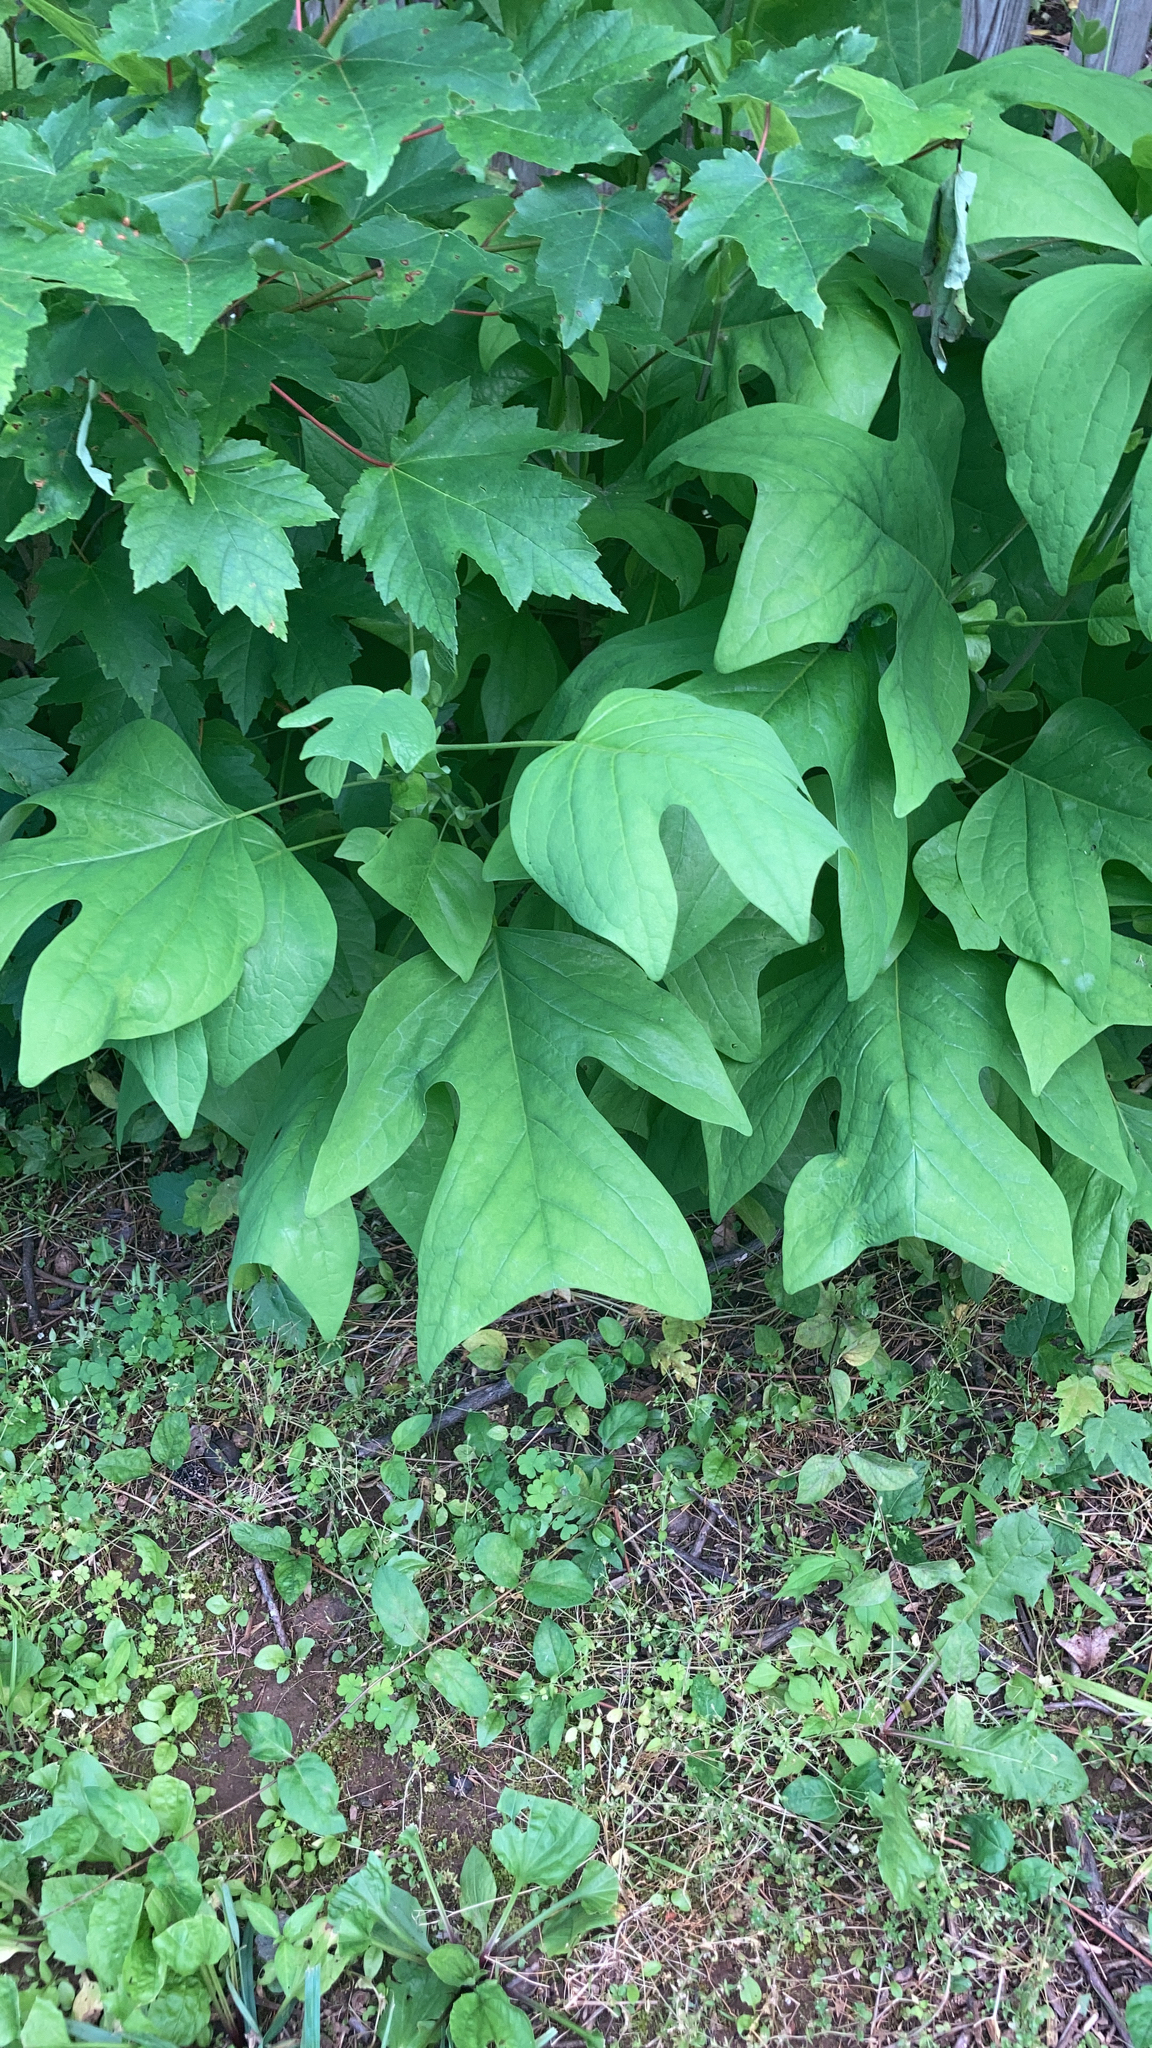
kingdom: Plantae
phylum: Tracheophyta
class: Magnoliopsida
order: Magnoliales
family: Magnoliaceae
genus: Liriodendron
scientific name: Liriodendron tulipifera
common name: Tulip tree
